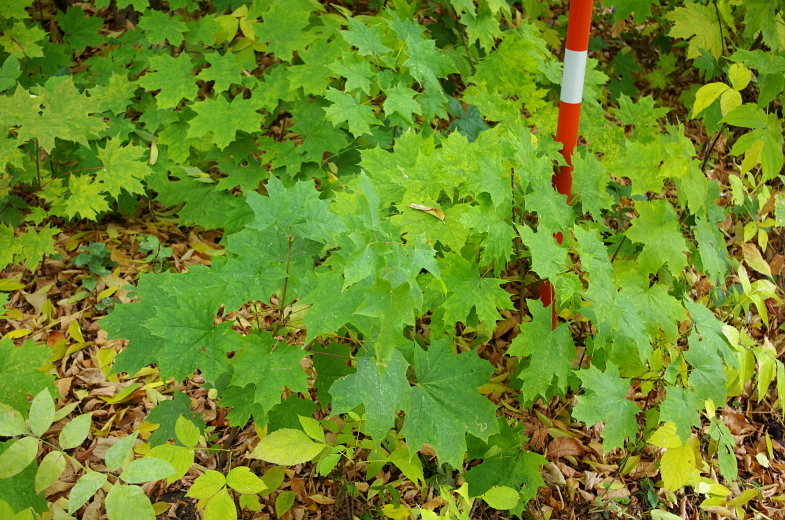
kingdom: Plantae
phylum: Tracheophyta
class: Magnoliopsida
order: Sapindales
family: Sapindaceae
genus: Acer
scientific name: Acer platanoides
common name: Norway maple
